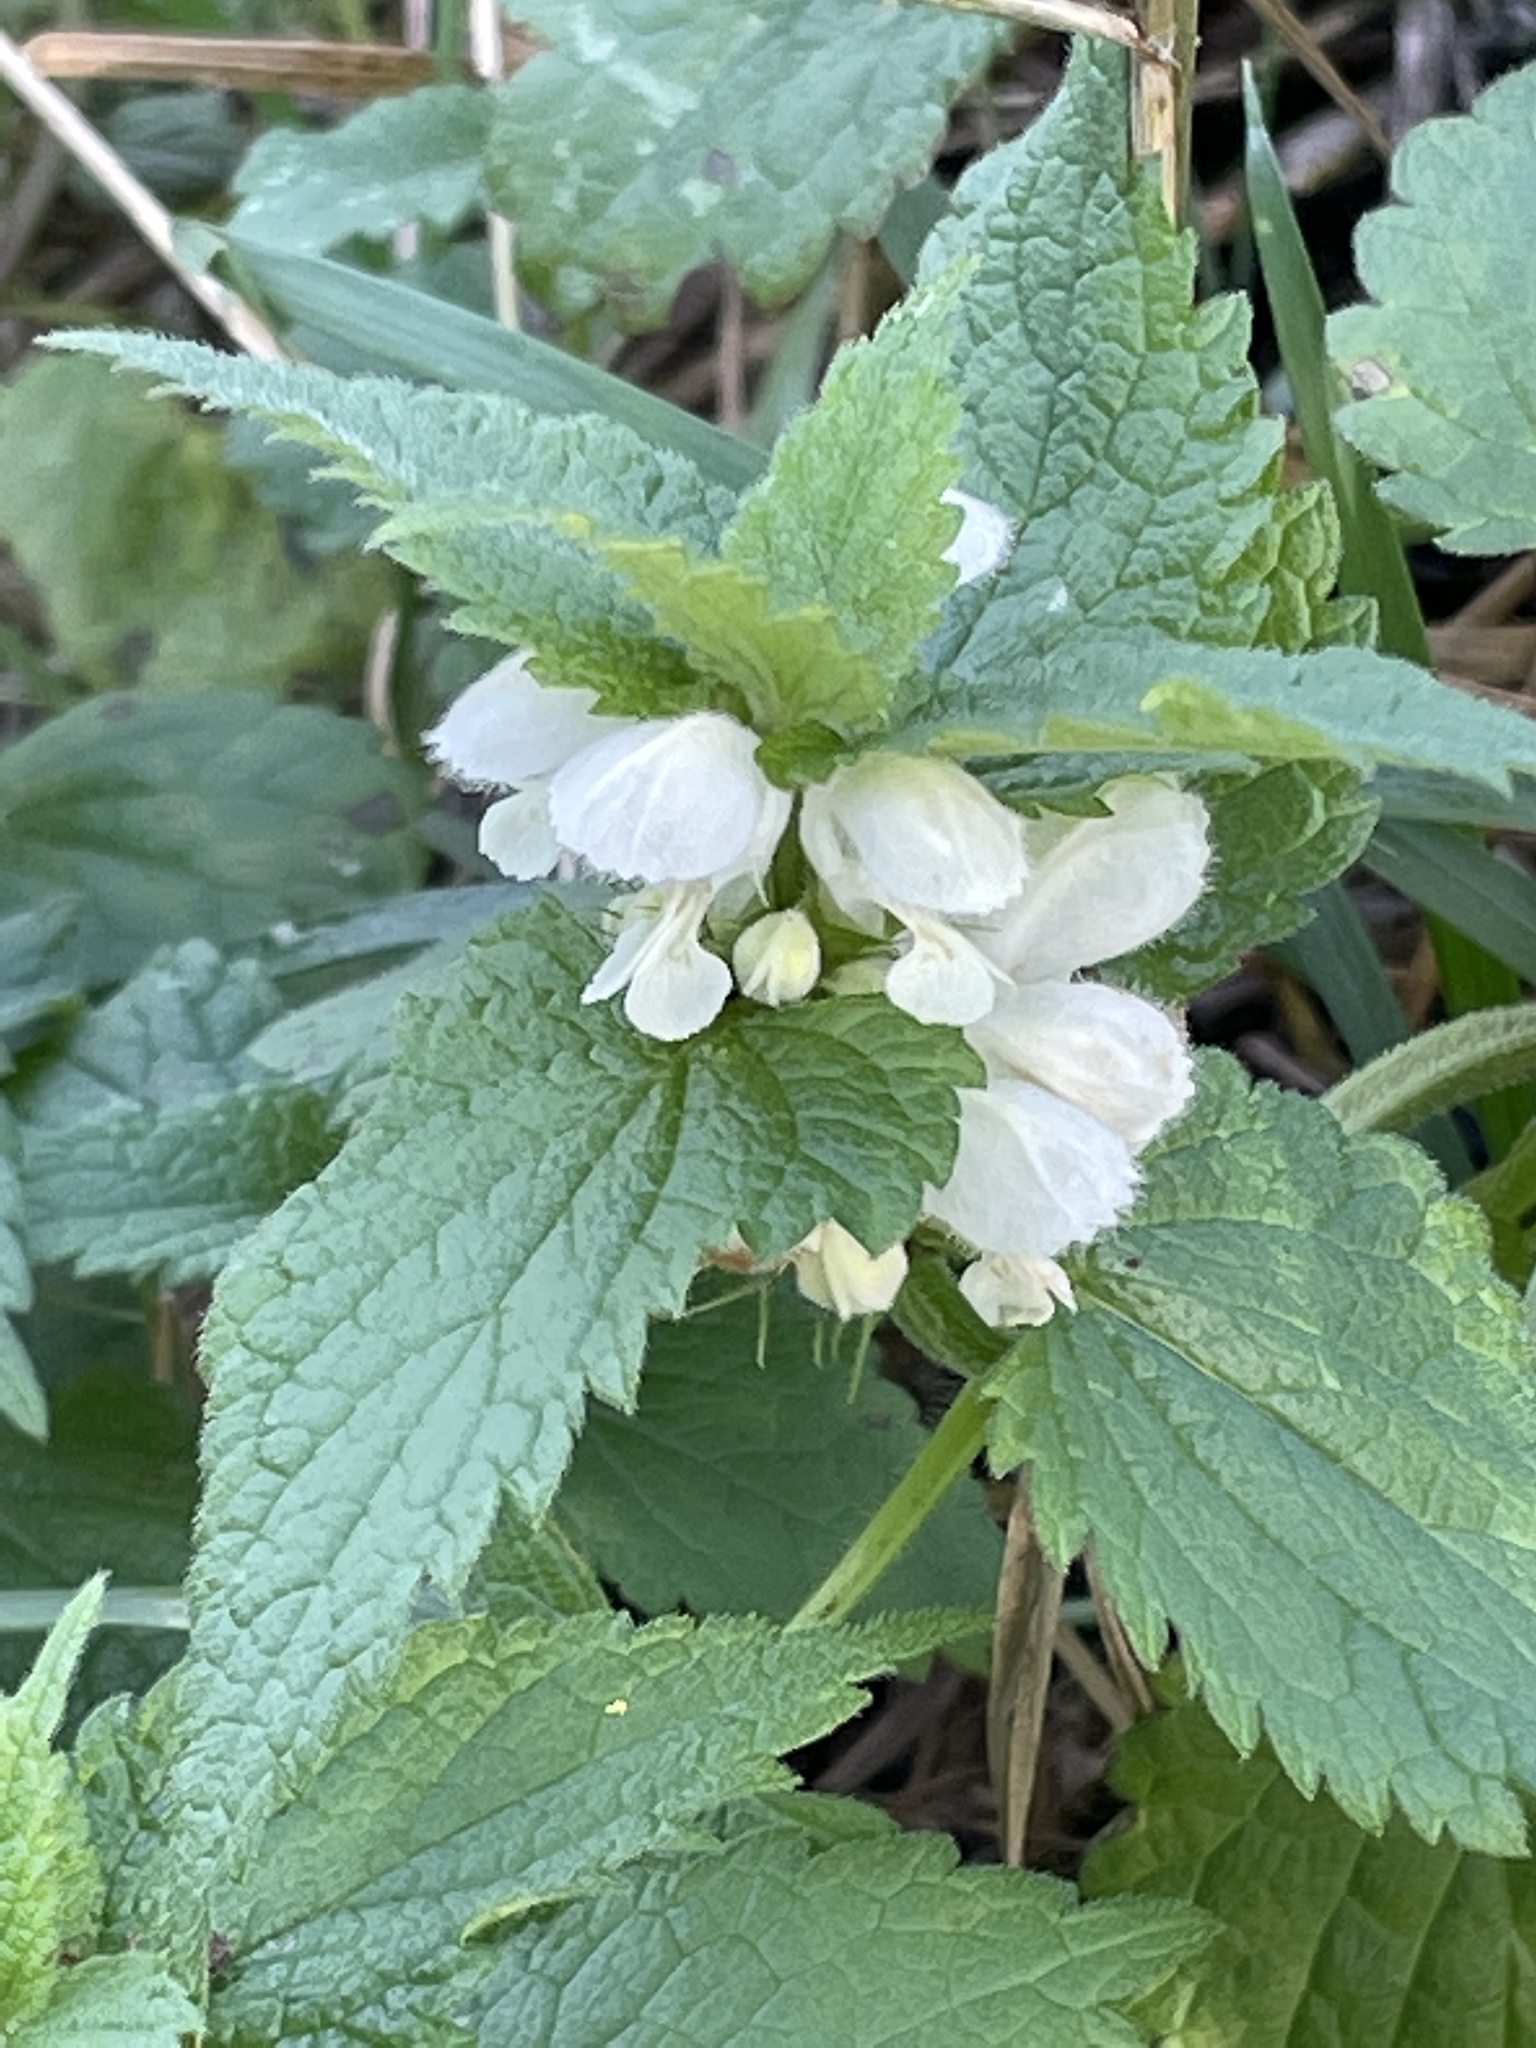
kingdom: Plantae
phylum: Tracheophyta
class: Magnoliopsida
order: Lamiales
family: Lamiaceae
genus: Lamium
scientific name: Lamium album
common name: White dead-nettle
